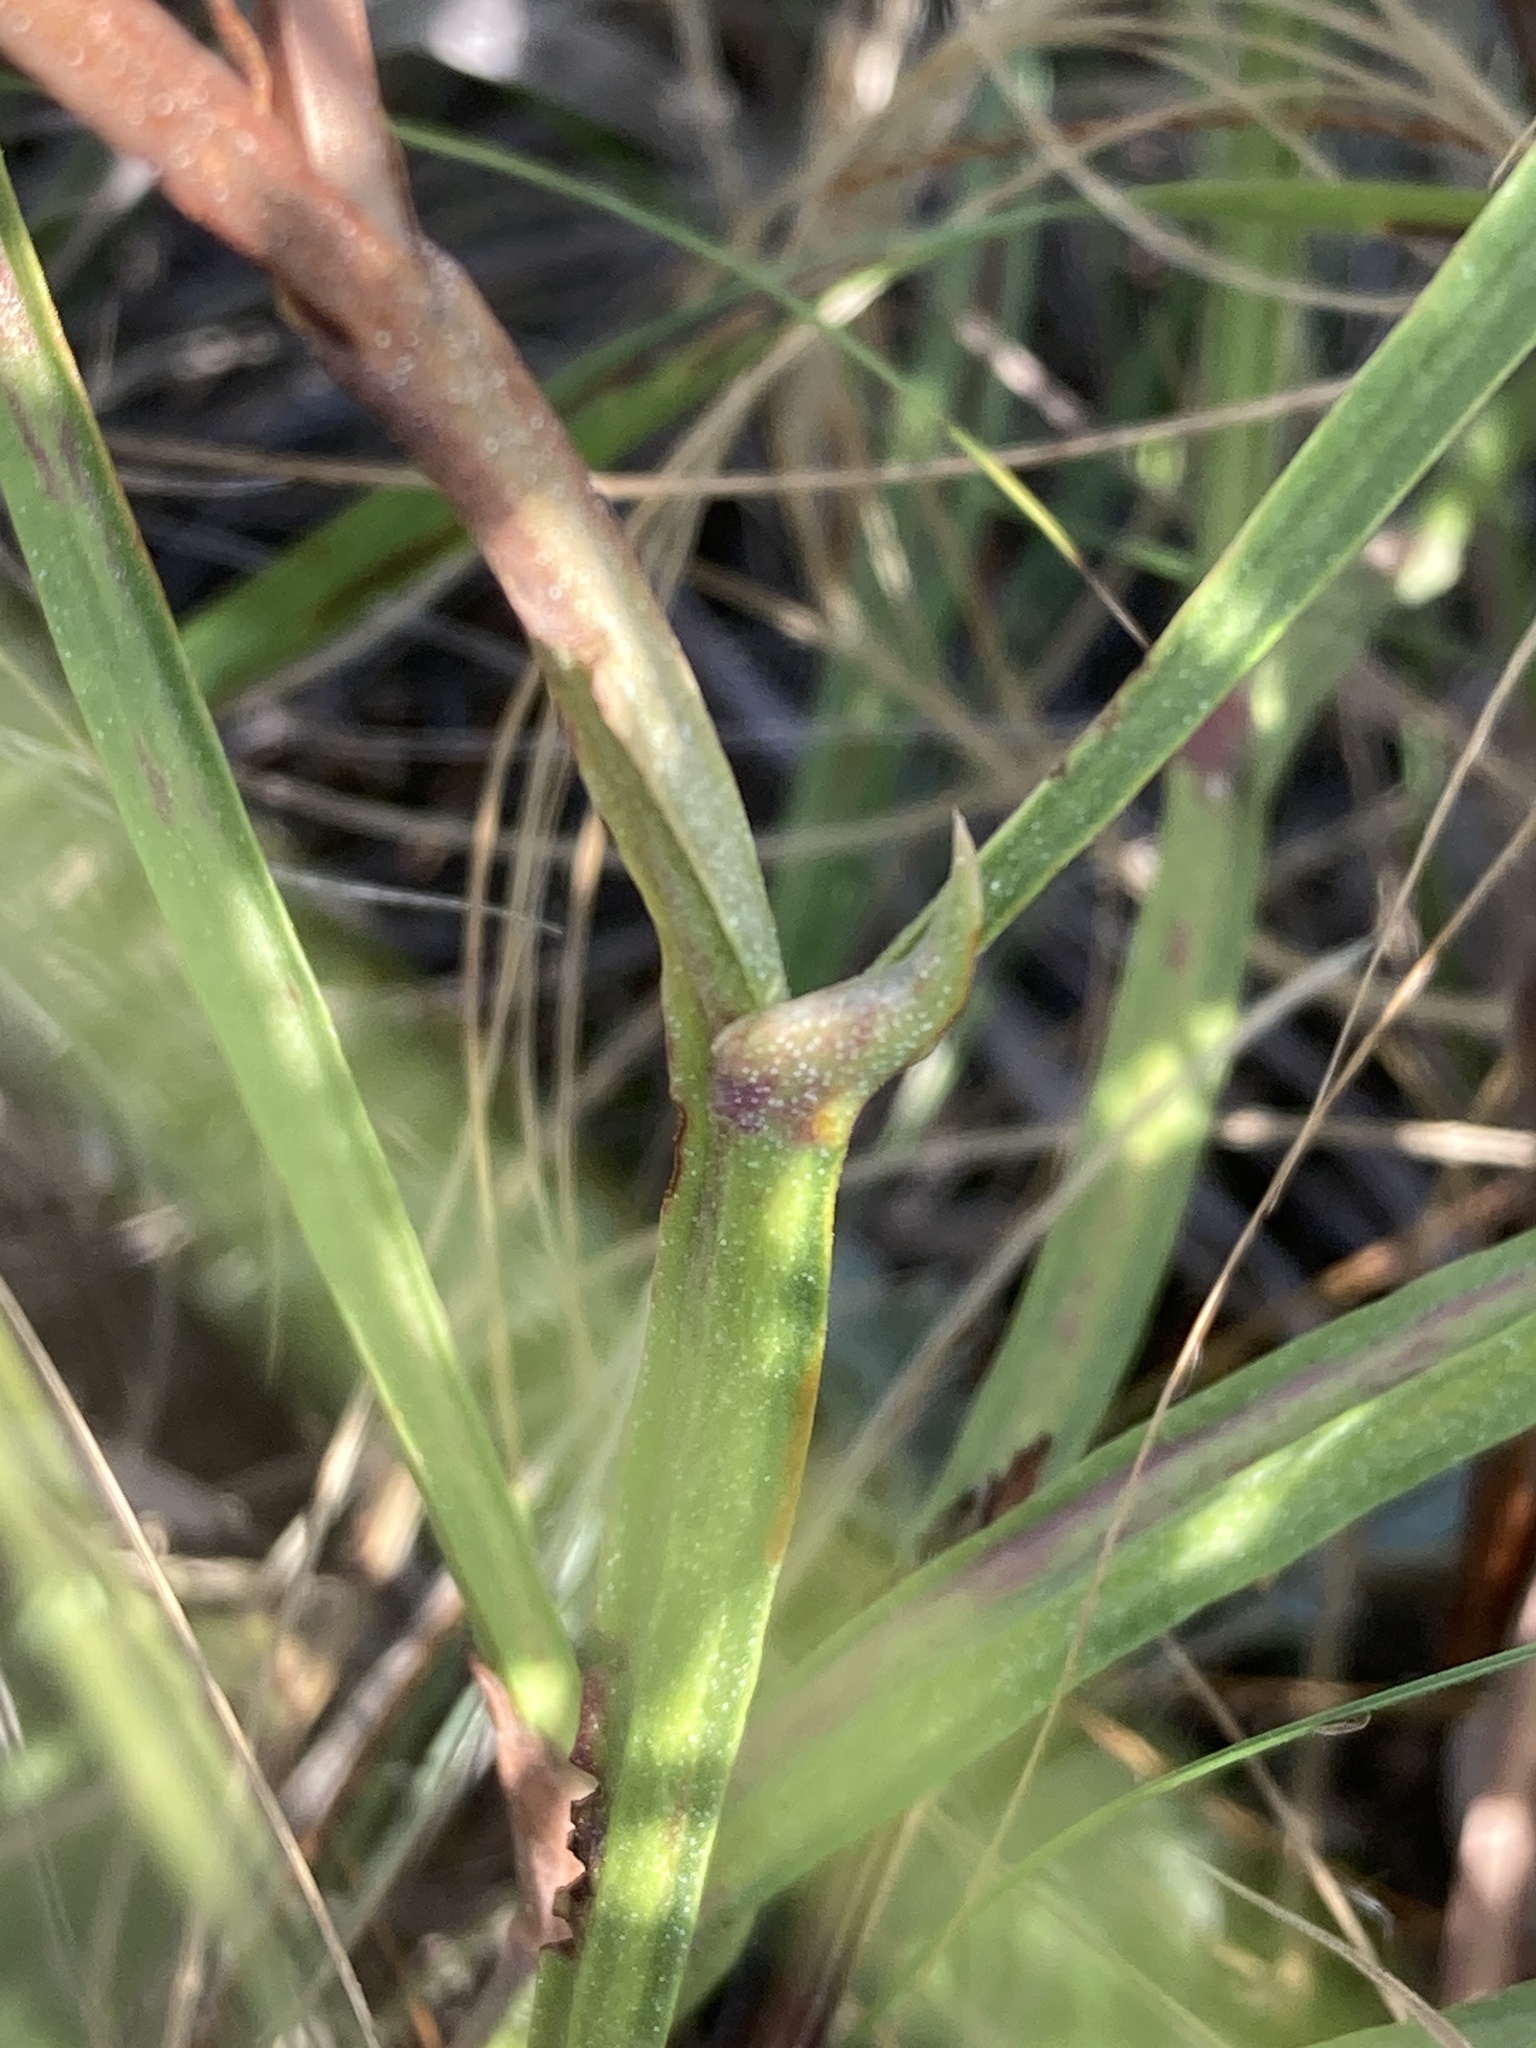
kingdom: Plantae
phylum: Tracheophyta
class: Magnoliopsida
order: Caryophyllales
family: Plumbaginaceae
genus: Goniolimon
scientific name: Goniolimon tataricum
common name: Statice
